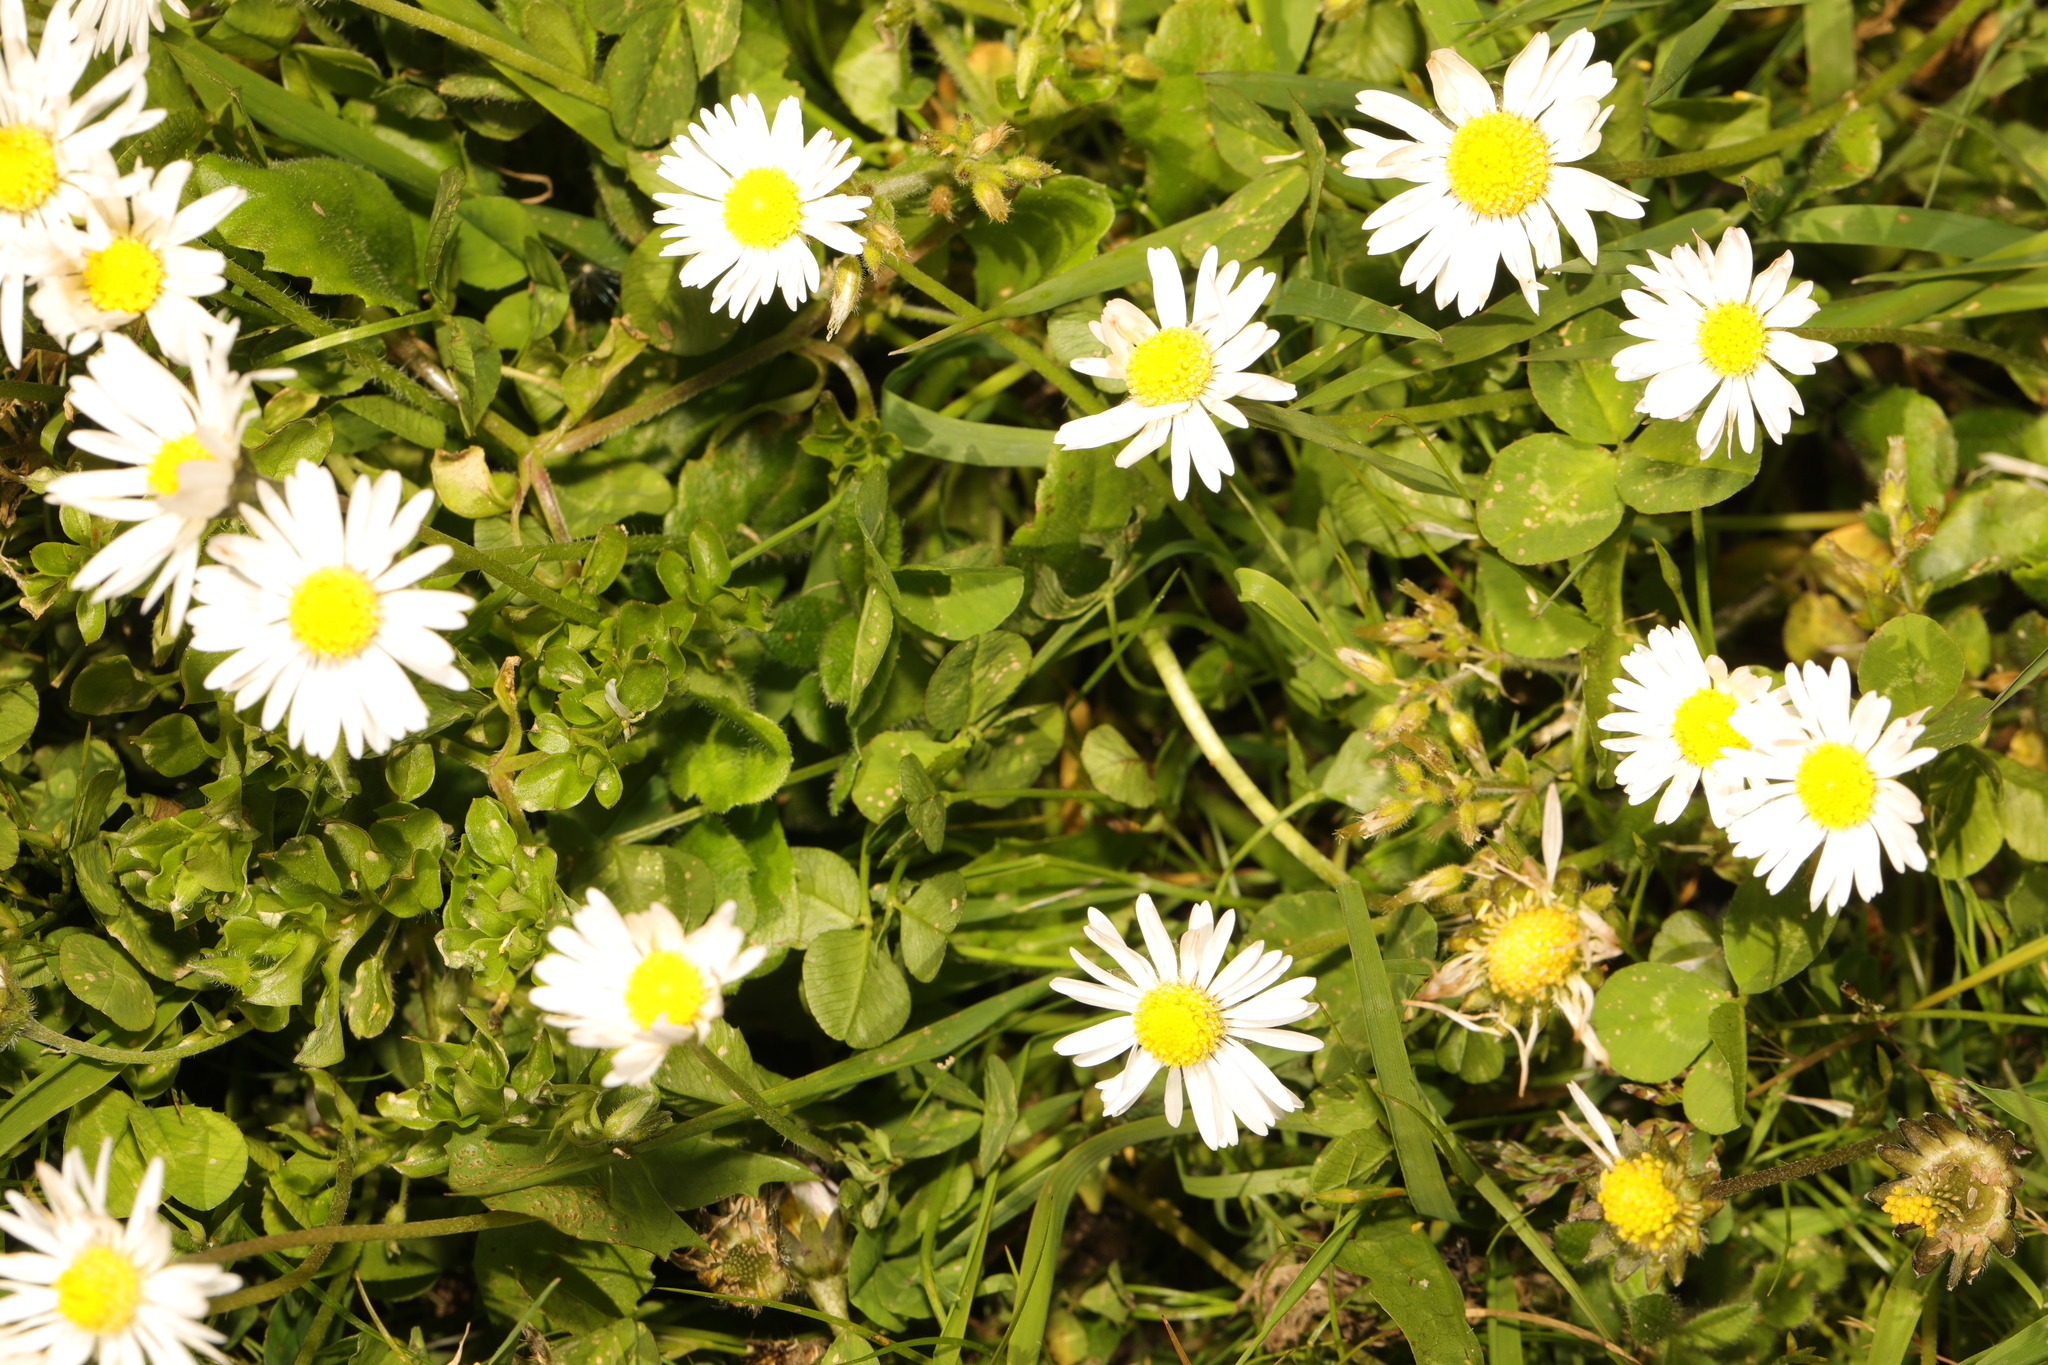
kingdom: Plantae
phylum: Tracheophyta
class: Magnoliopsida
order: Asterales
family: Asteraceae
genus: Bellis
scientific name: Bellis perennis
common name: Lawndaisy
